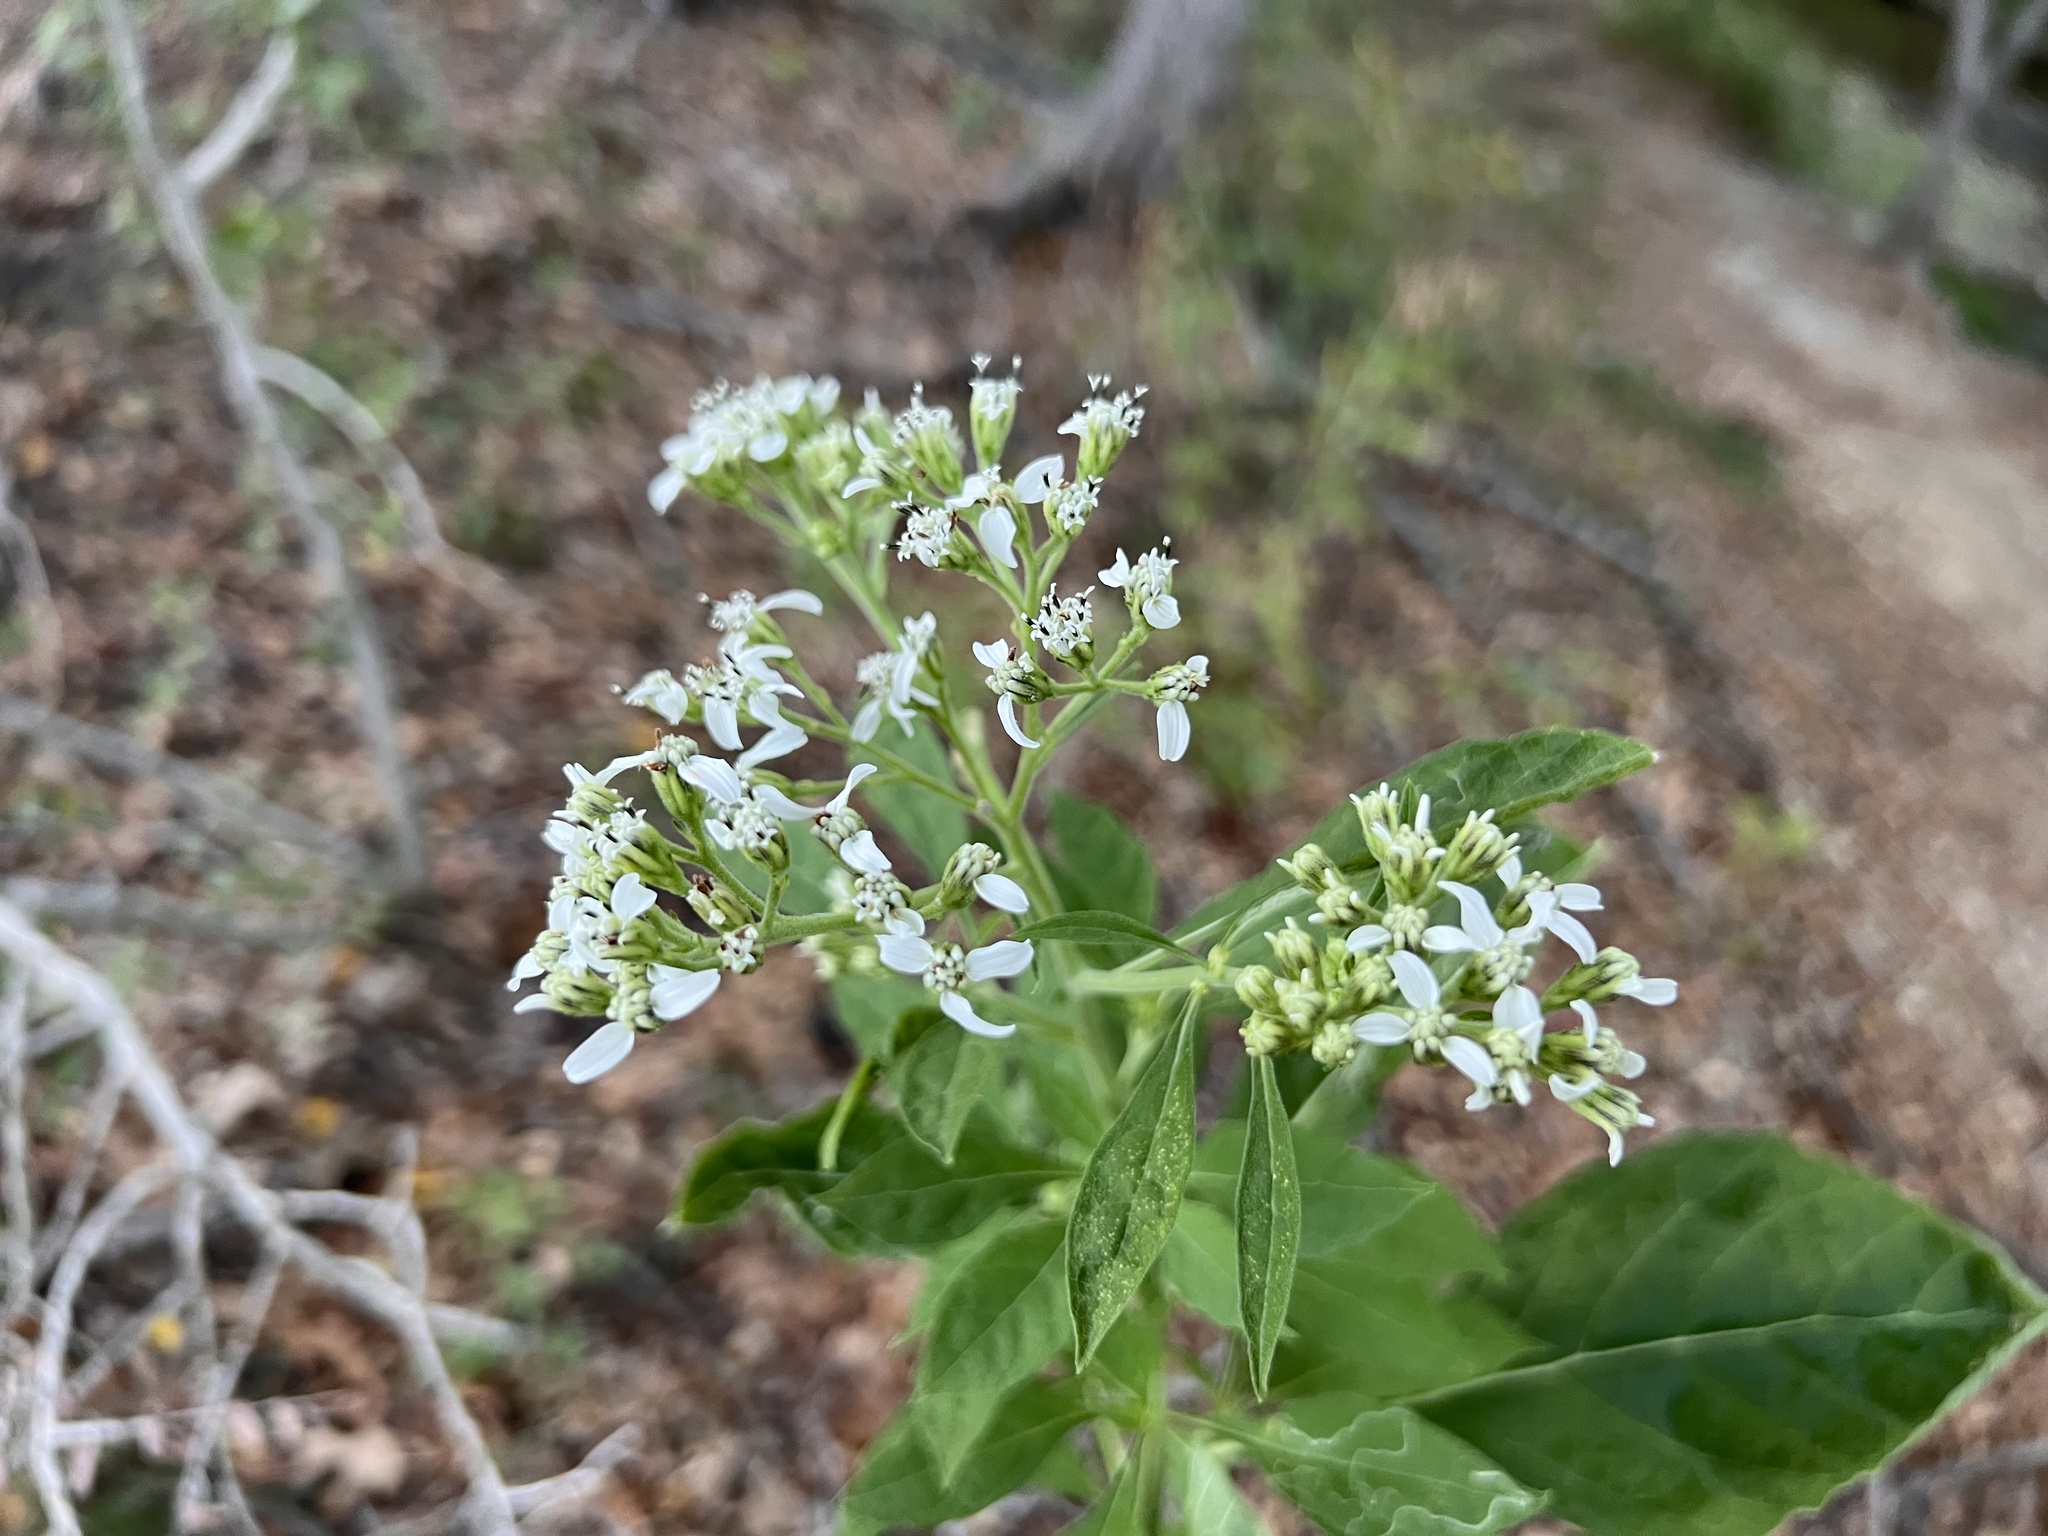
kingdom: Plantae
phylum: Tracheophyta
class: Magnoliopsida
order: Asterales
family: Asteraceae
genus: Verbesina
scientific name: Verbesina virginica
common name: Frostweed
